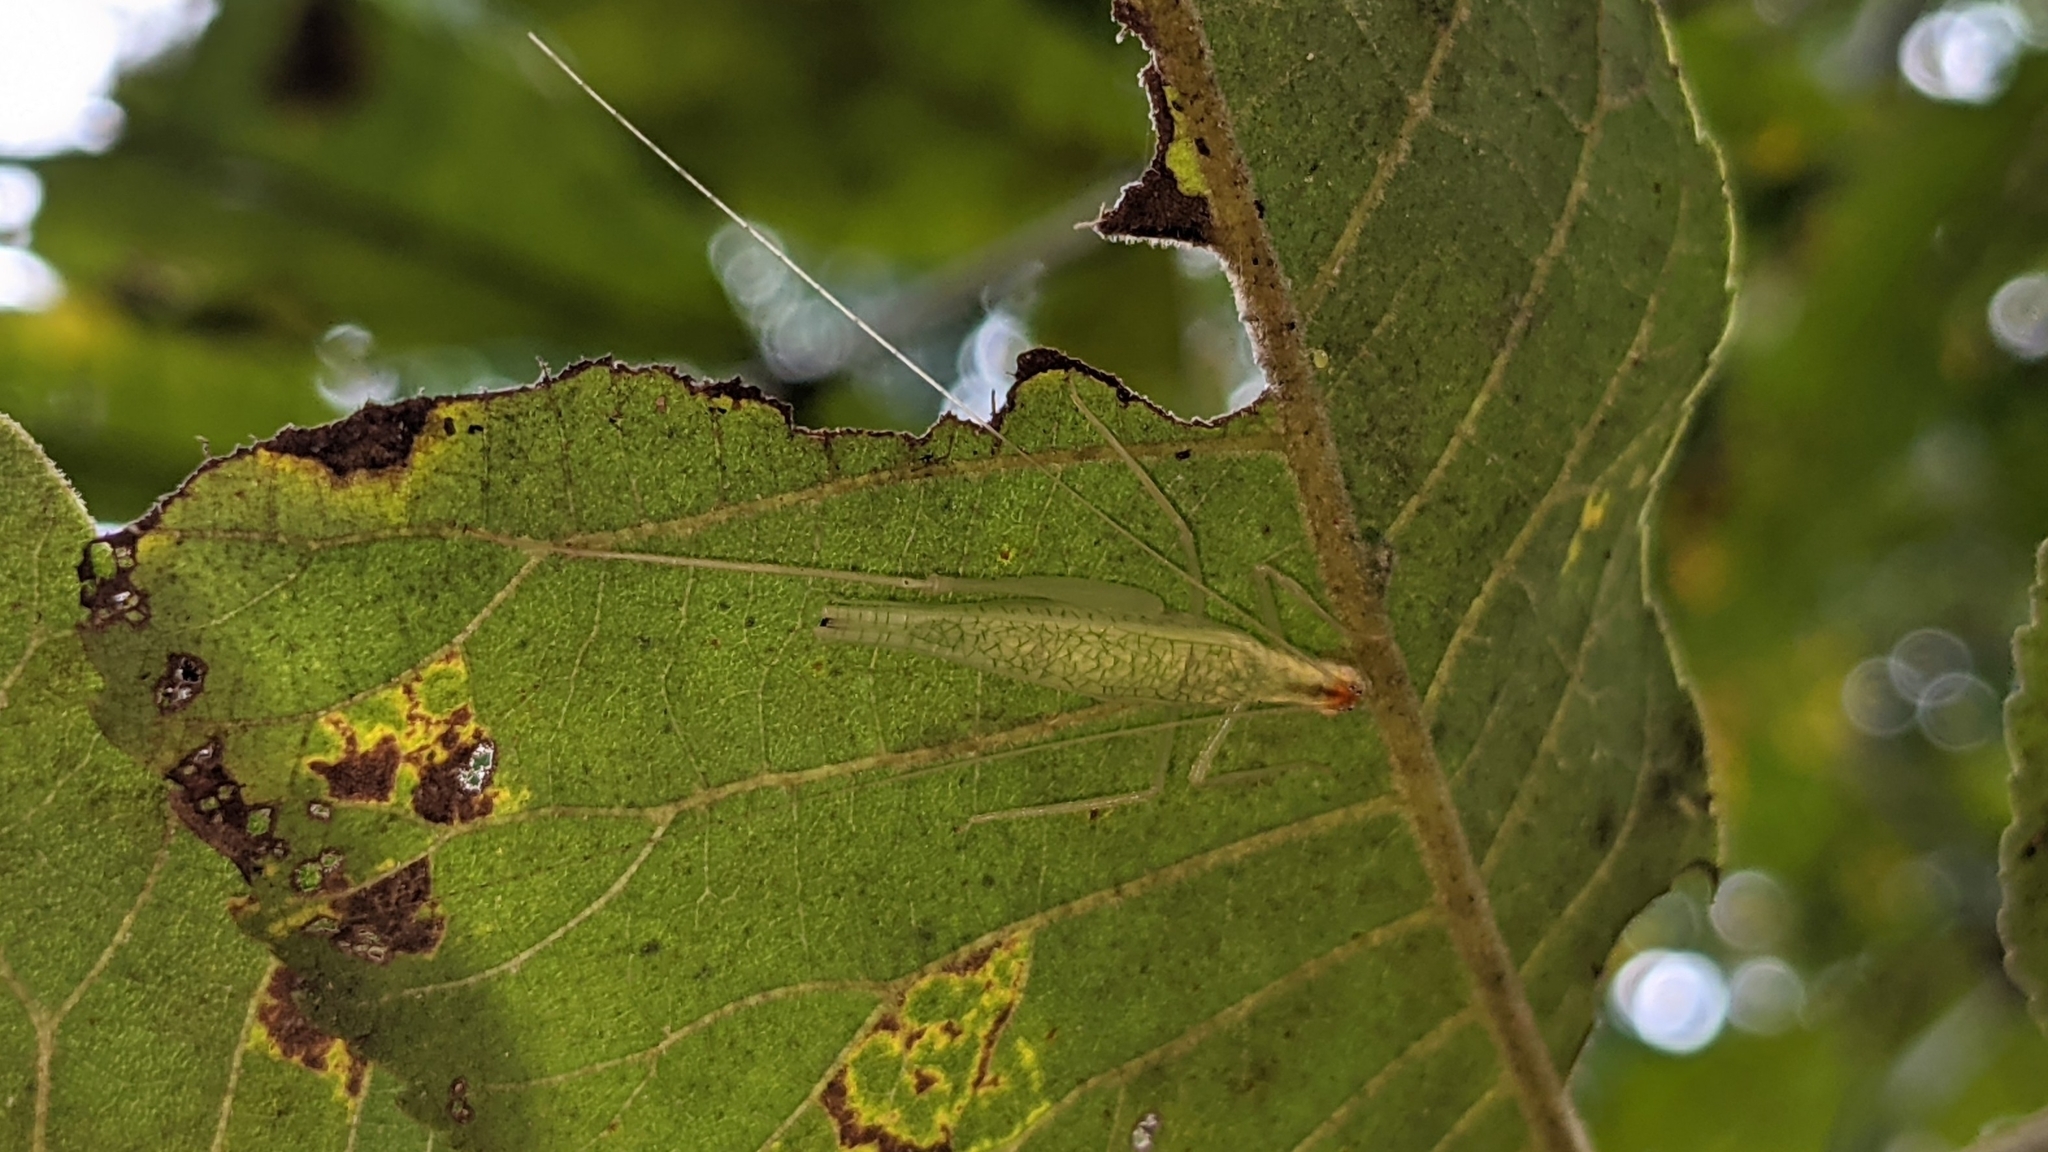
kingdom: Animalia
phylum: Arthropoda
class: Insecta
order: Orthoptera
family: Gryllidae
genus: Oecanthus
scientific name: Oecanthus niveus
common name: Narrow-winged tree cricket
